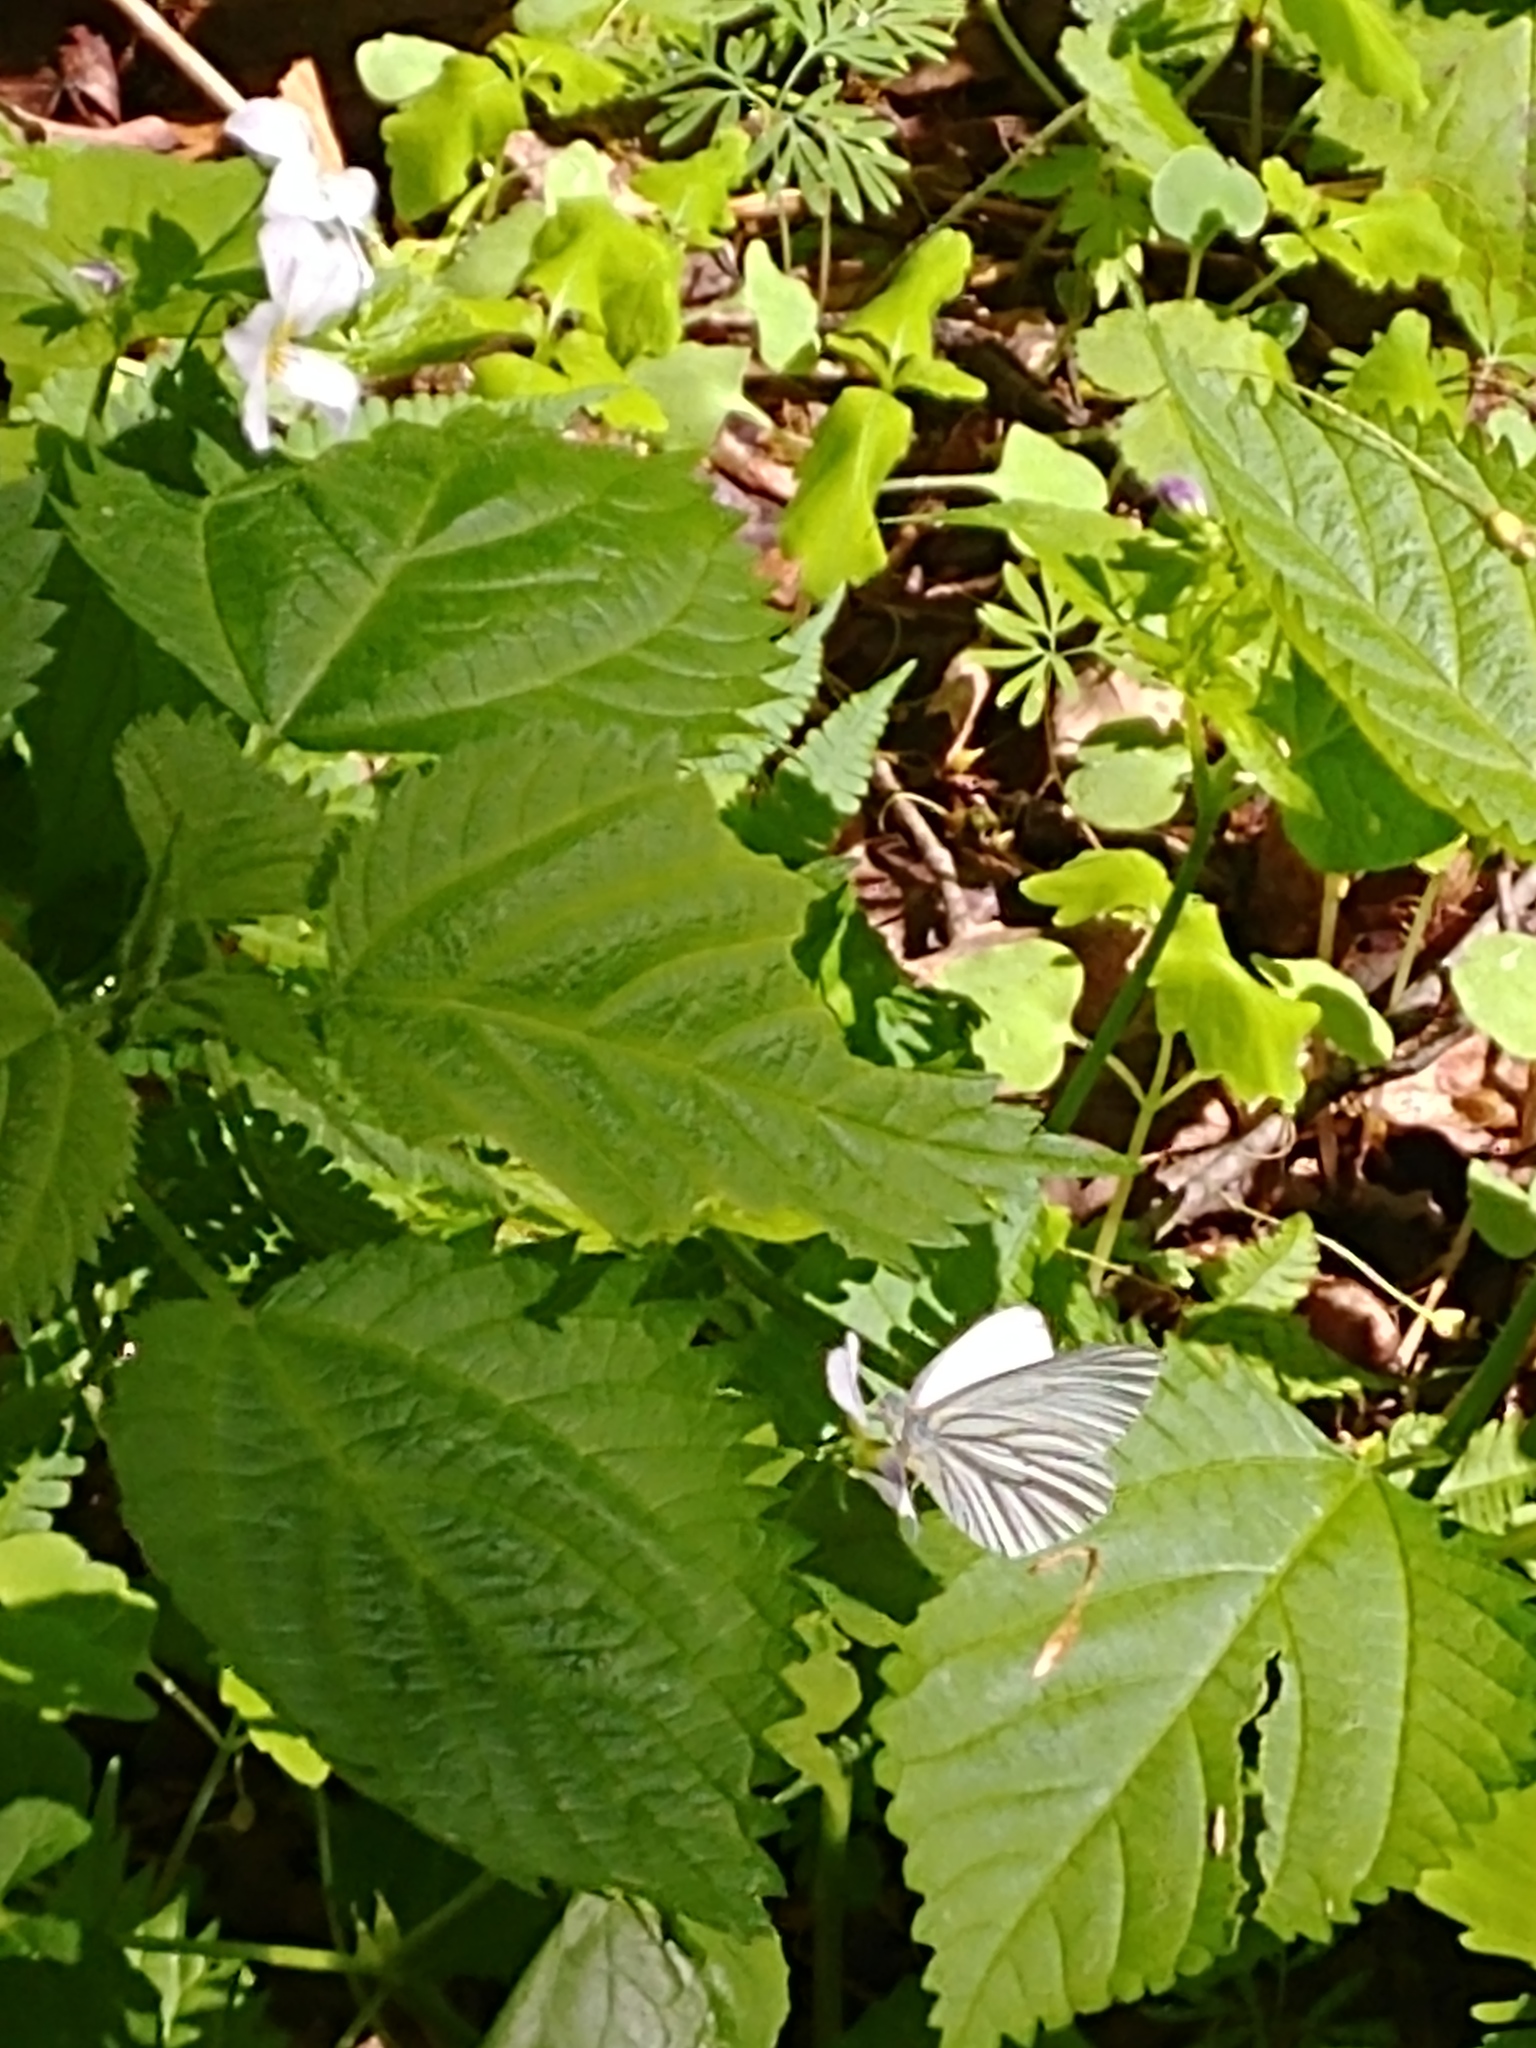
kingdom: Animalia
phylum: Arthropoda
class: Insecta
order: Lepidoptera
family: Pieridae
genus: Pieris
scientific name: Pieris oleracea
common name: Mustard white
